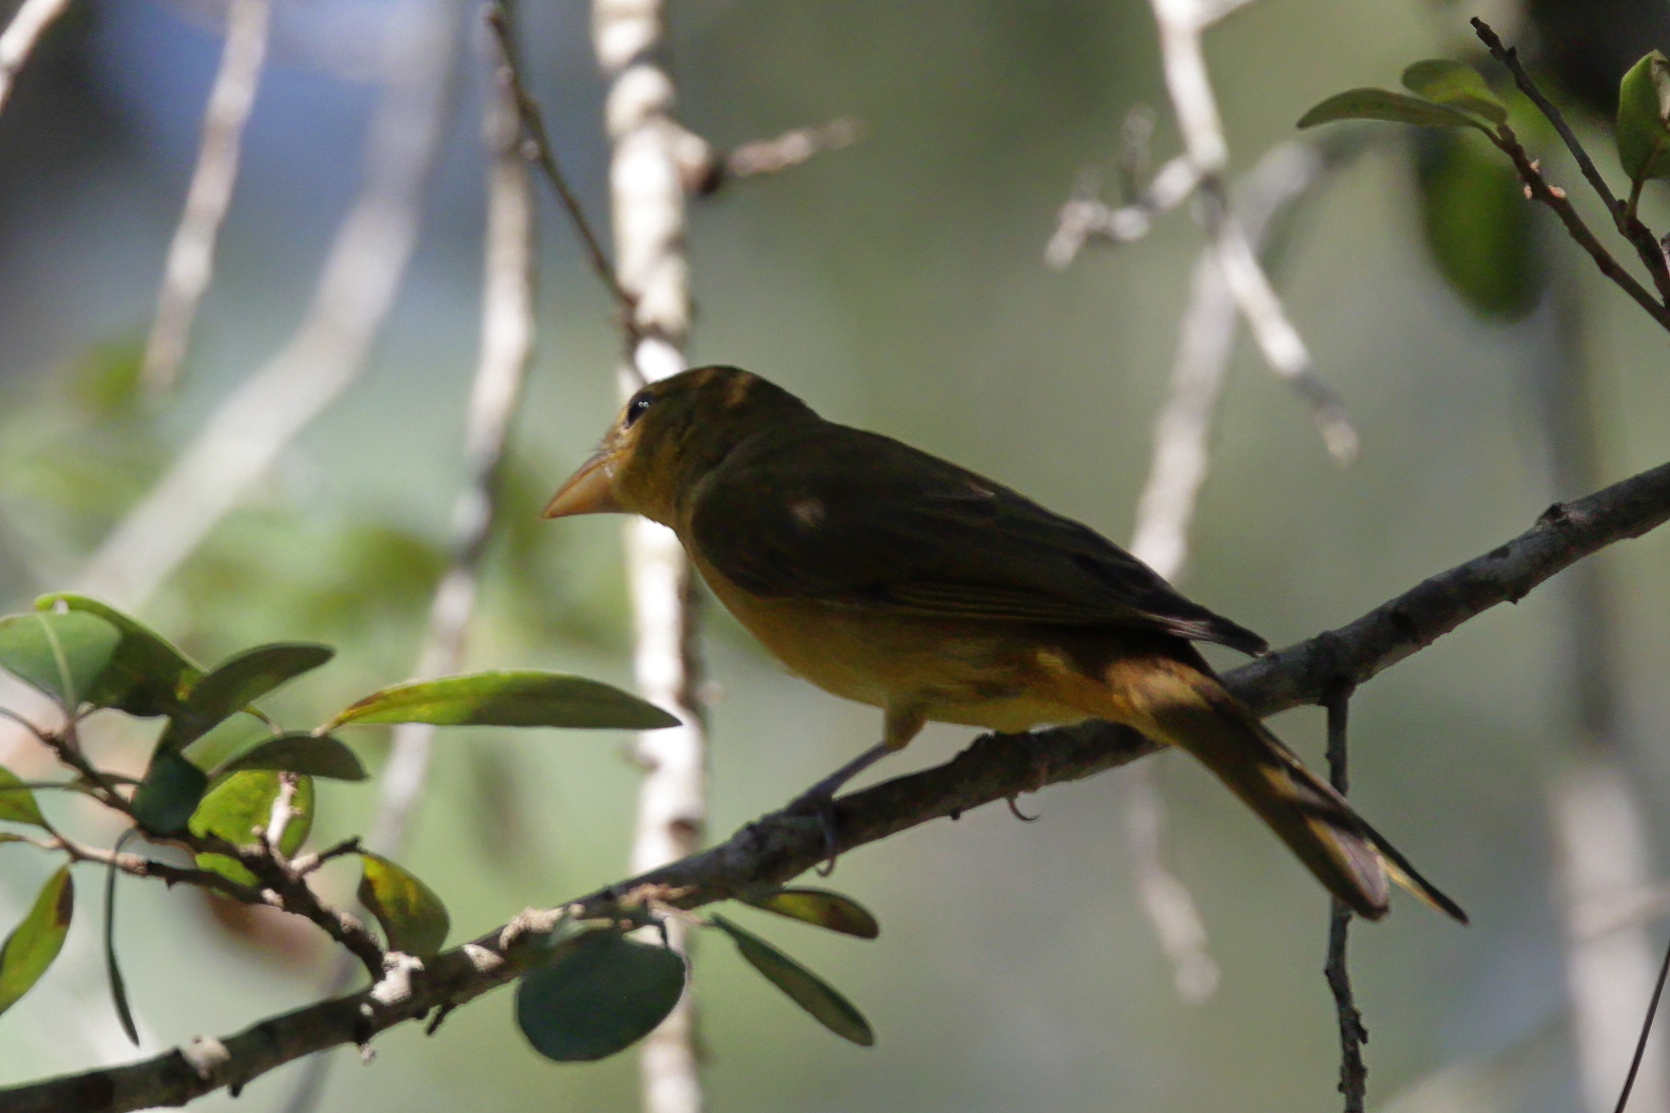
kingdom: Animalia
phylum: Chordata
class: Aves
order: Passeriformes
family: Cardinalidae
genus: Piranga
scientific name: Piranga rubra
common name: Summer tanager
